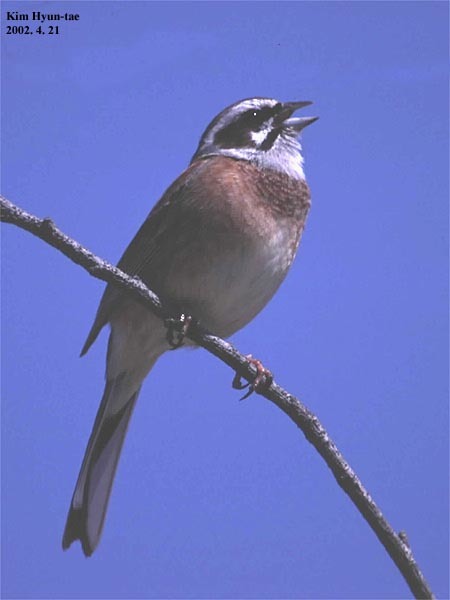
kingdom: Animalia
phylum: Chordata
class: Aves
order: Passeriformes
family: Emberizidae
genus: Emberiza
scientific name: Emberiza cioides
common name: Meadow bunting
